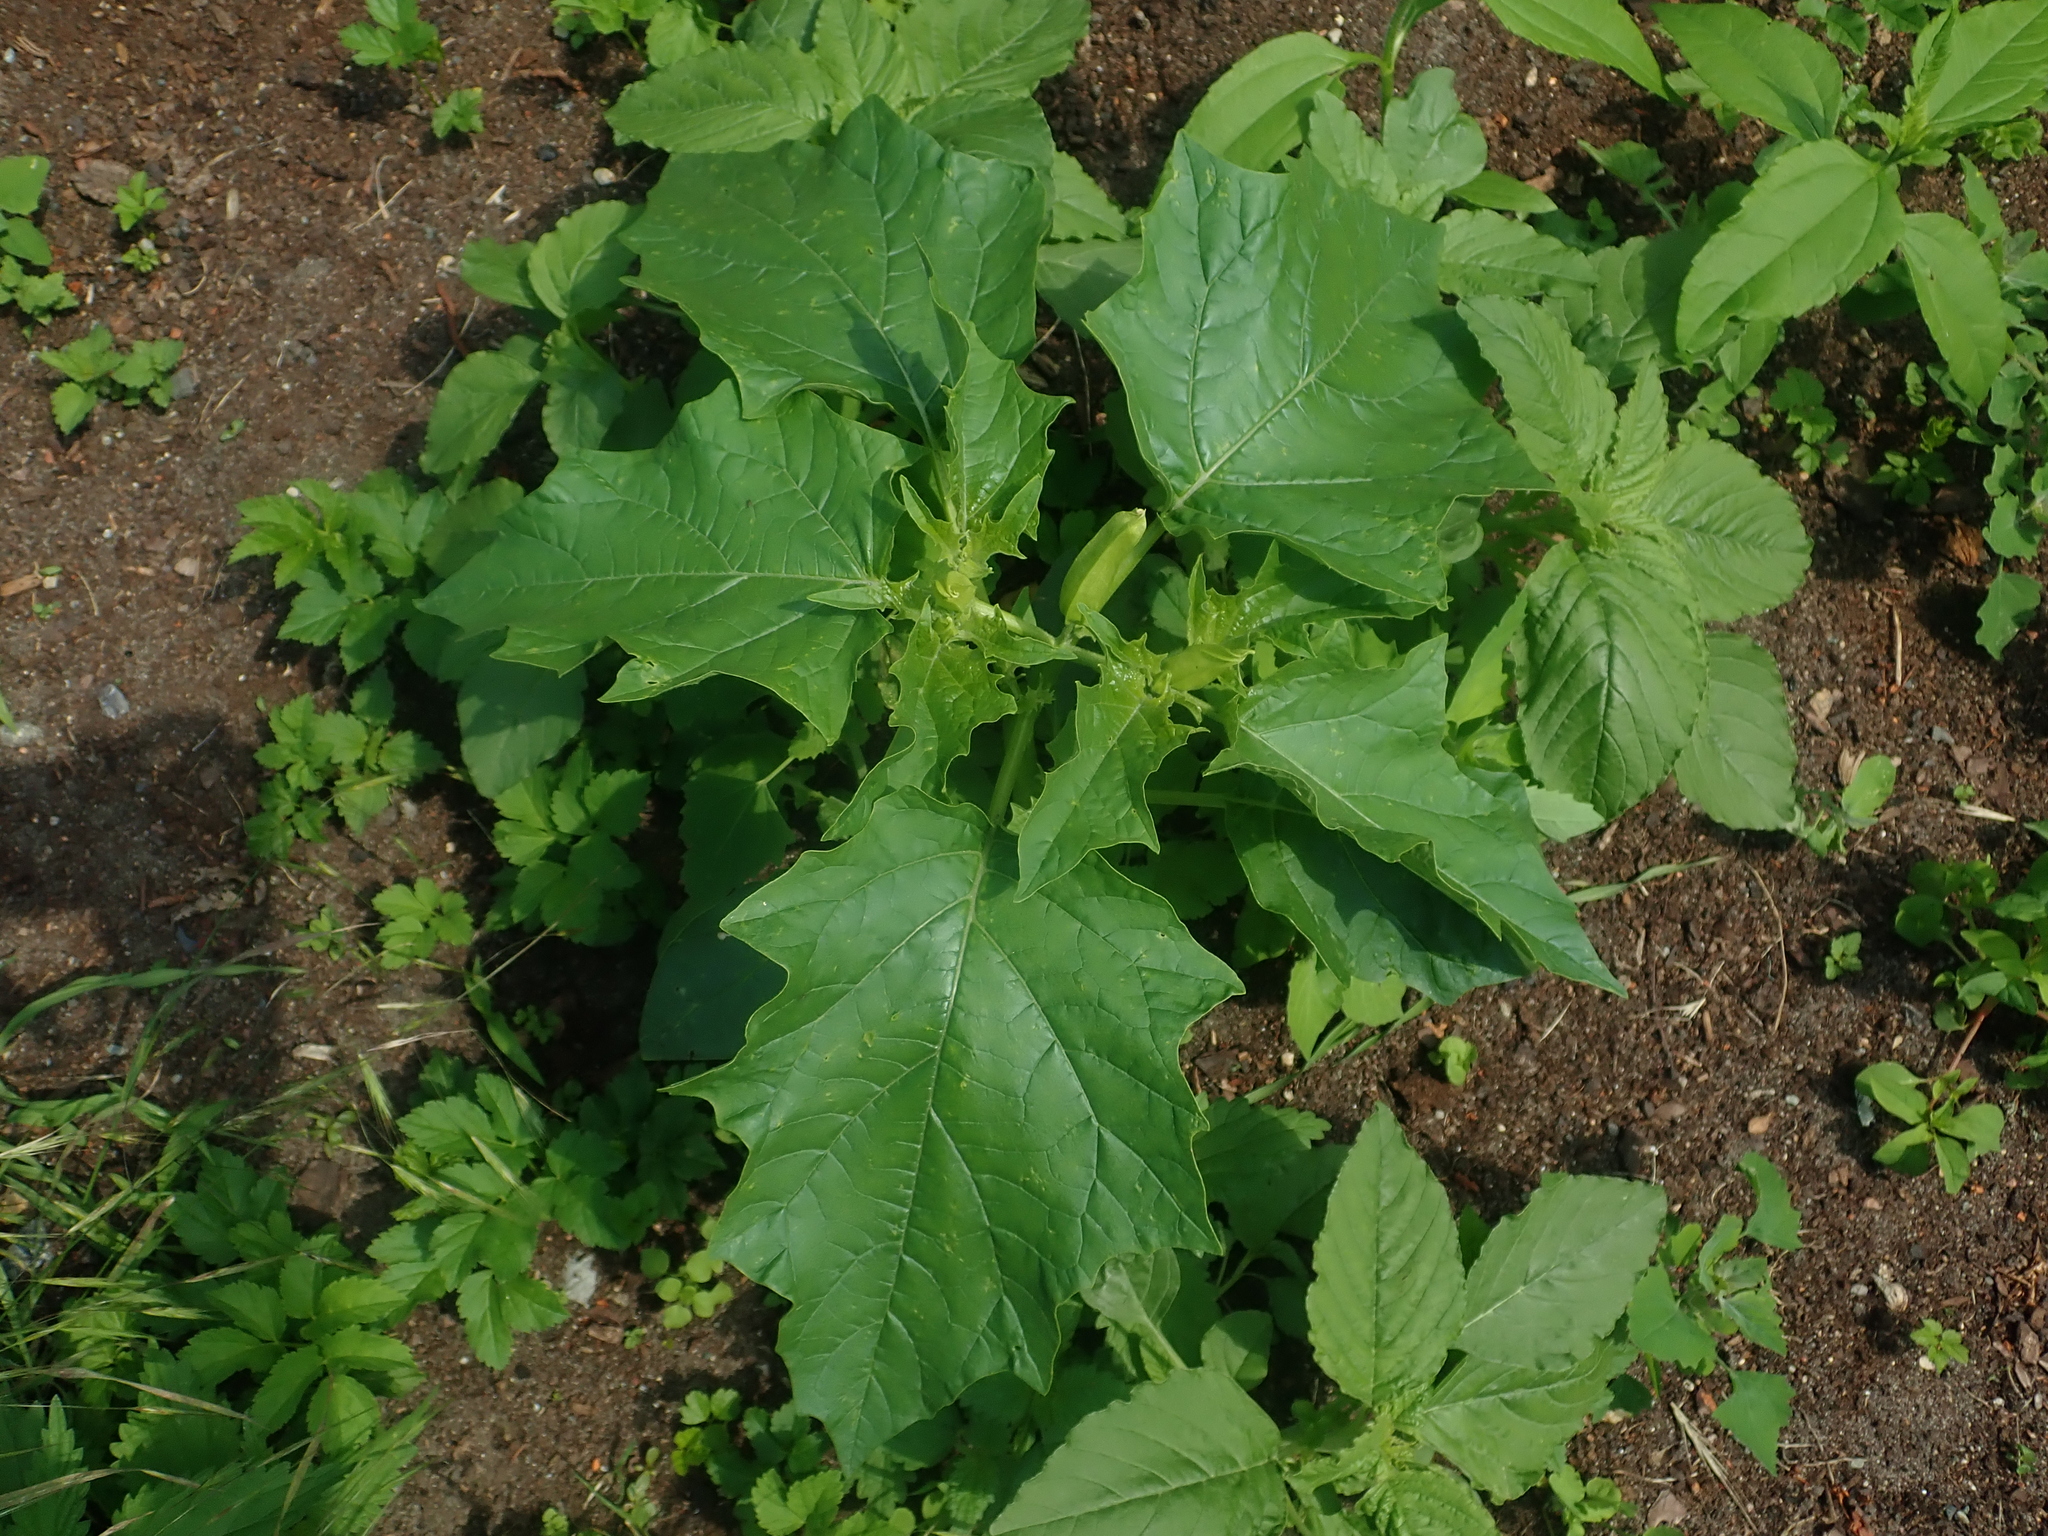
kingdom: Plantae
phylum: Tracheophyta
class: Magnoliopsida
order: Solanales
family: Solanaceae
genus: Datura
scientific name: Datura stramonium
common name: Thorn-apple
